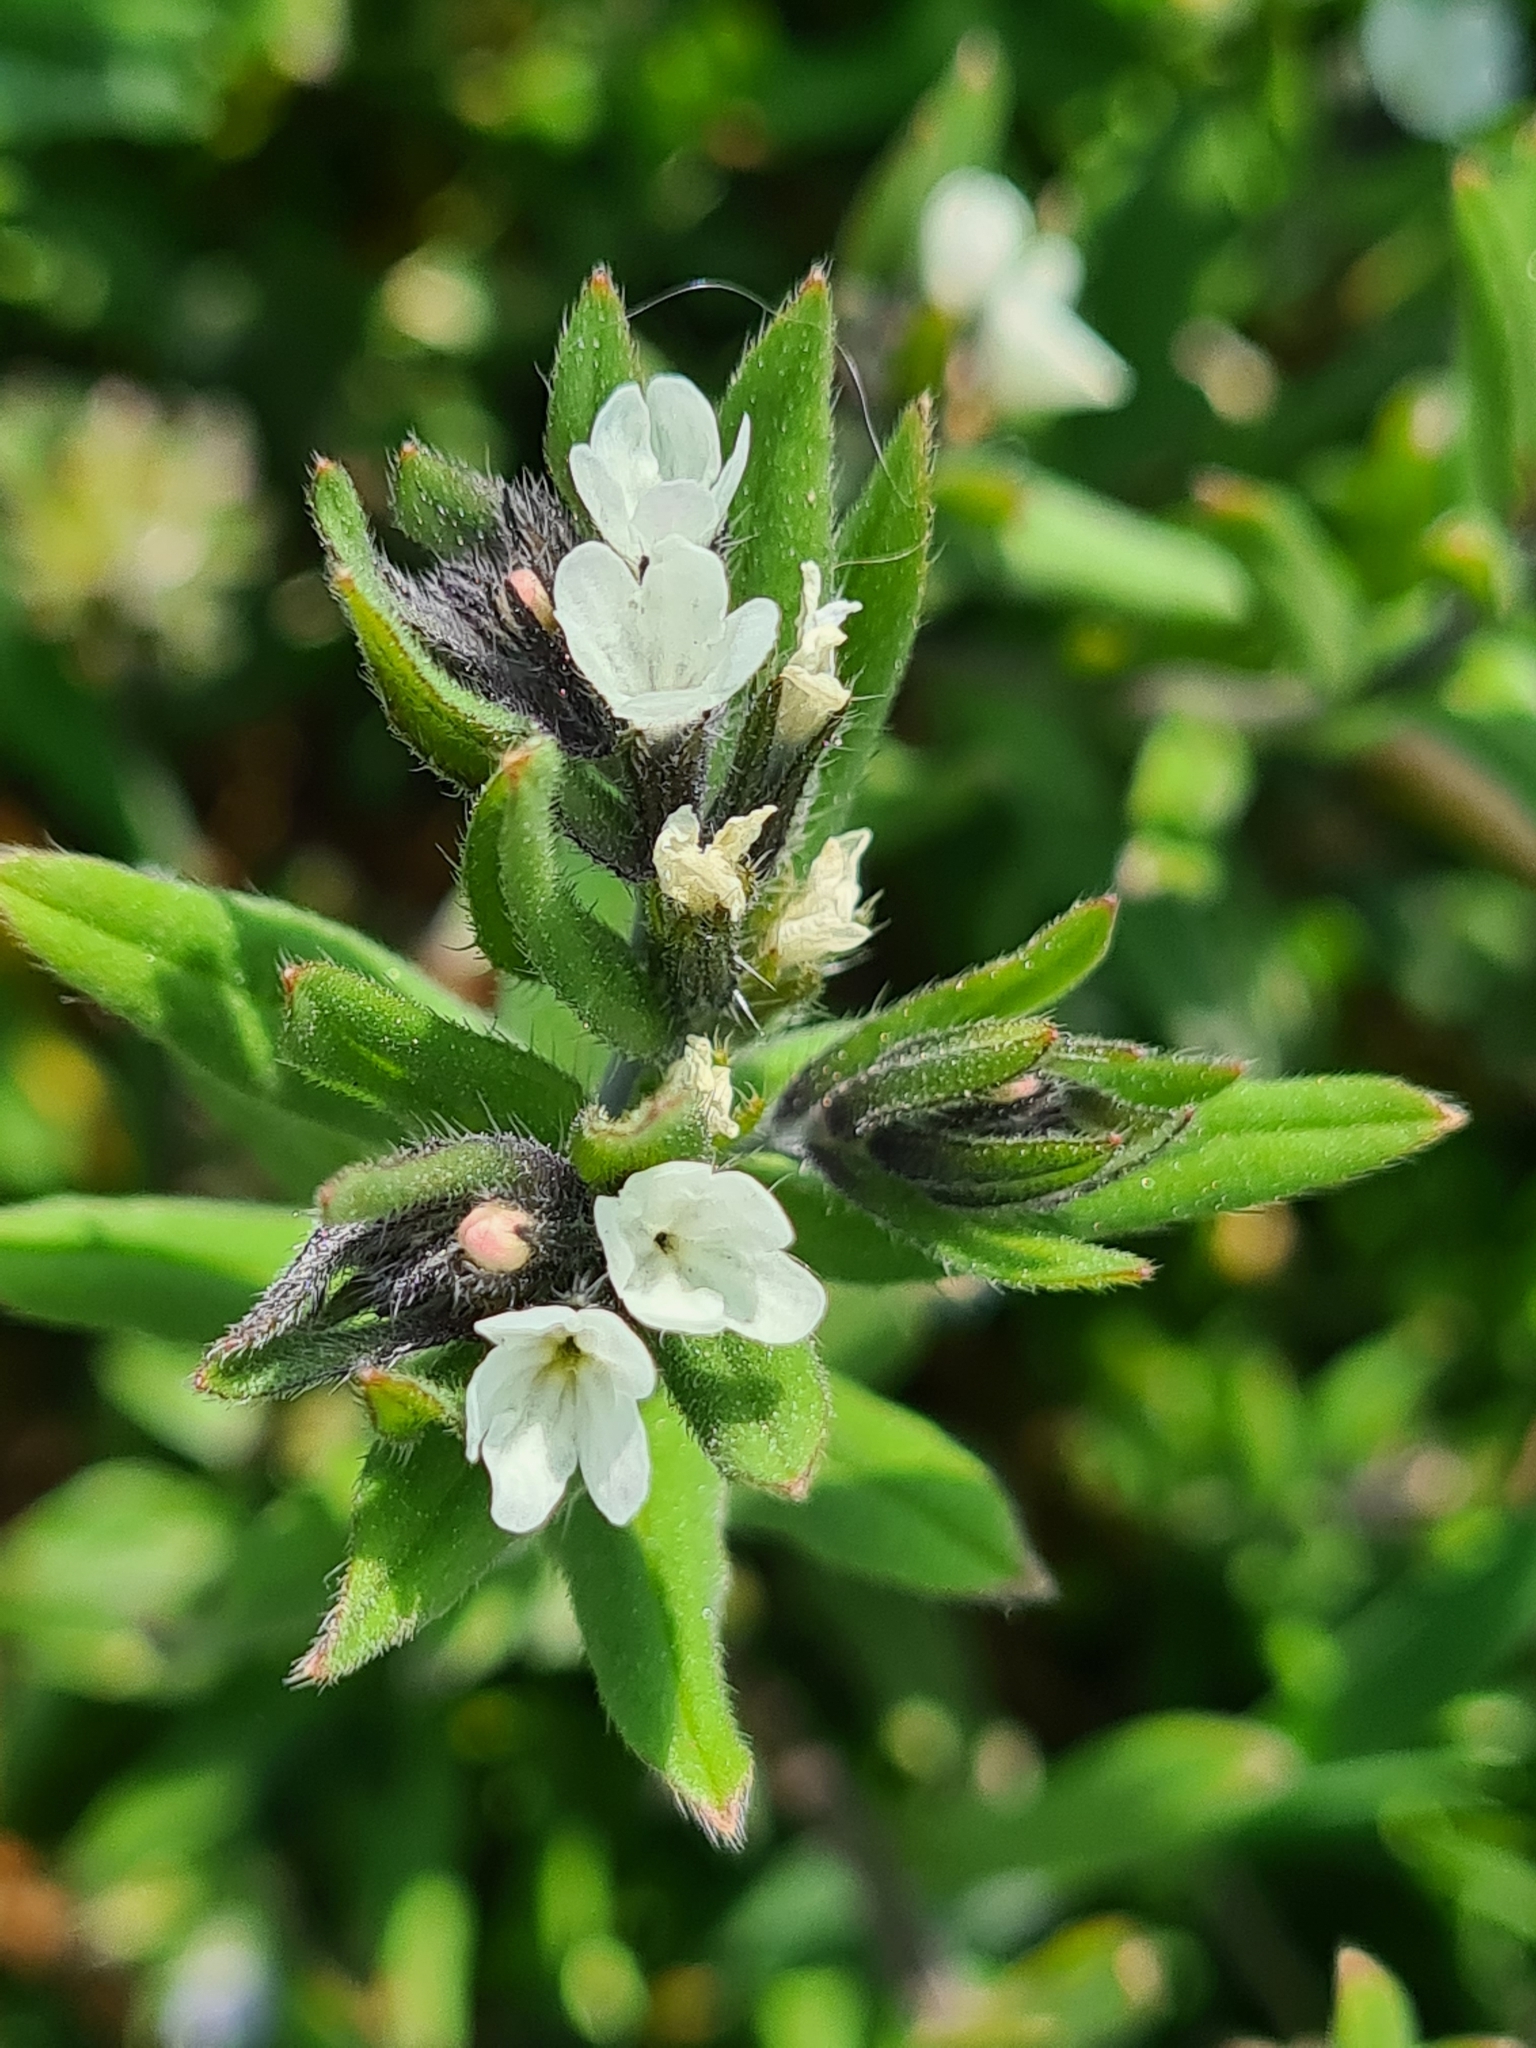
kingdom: Plantae
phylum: Tracheophyta
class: Magnoliopsida
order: Boraginales
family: Boraginaceae
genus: Buglossoides
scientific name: Buglossoides arvensis
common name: Corn gromwell
